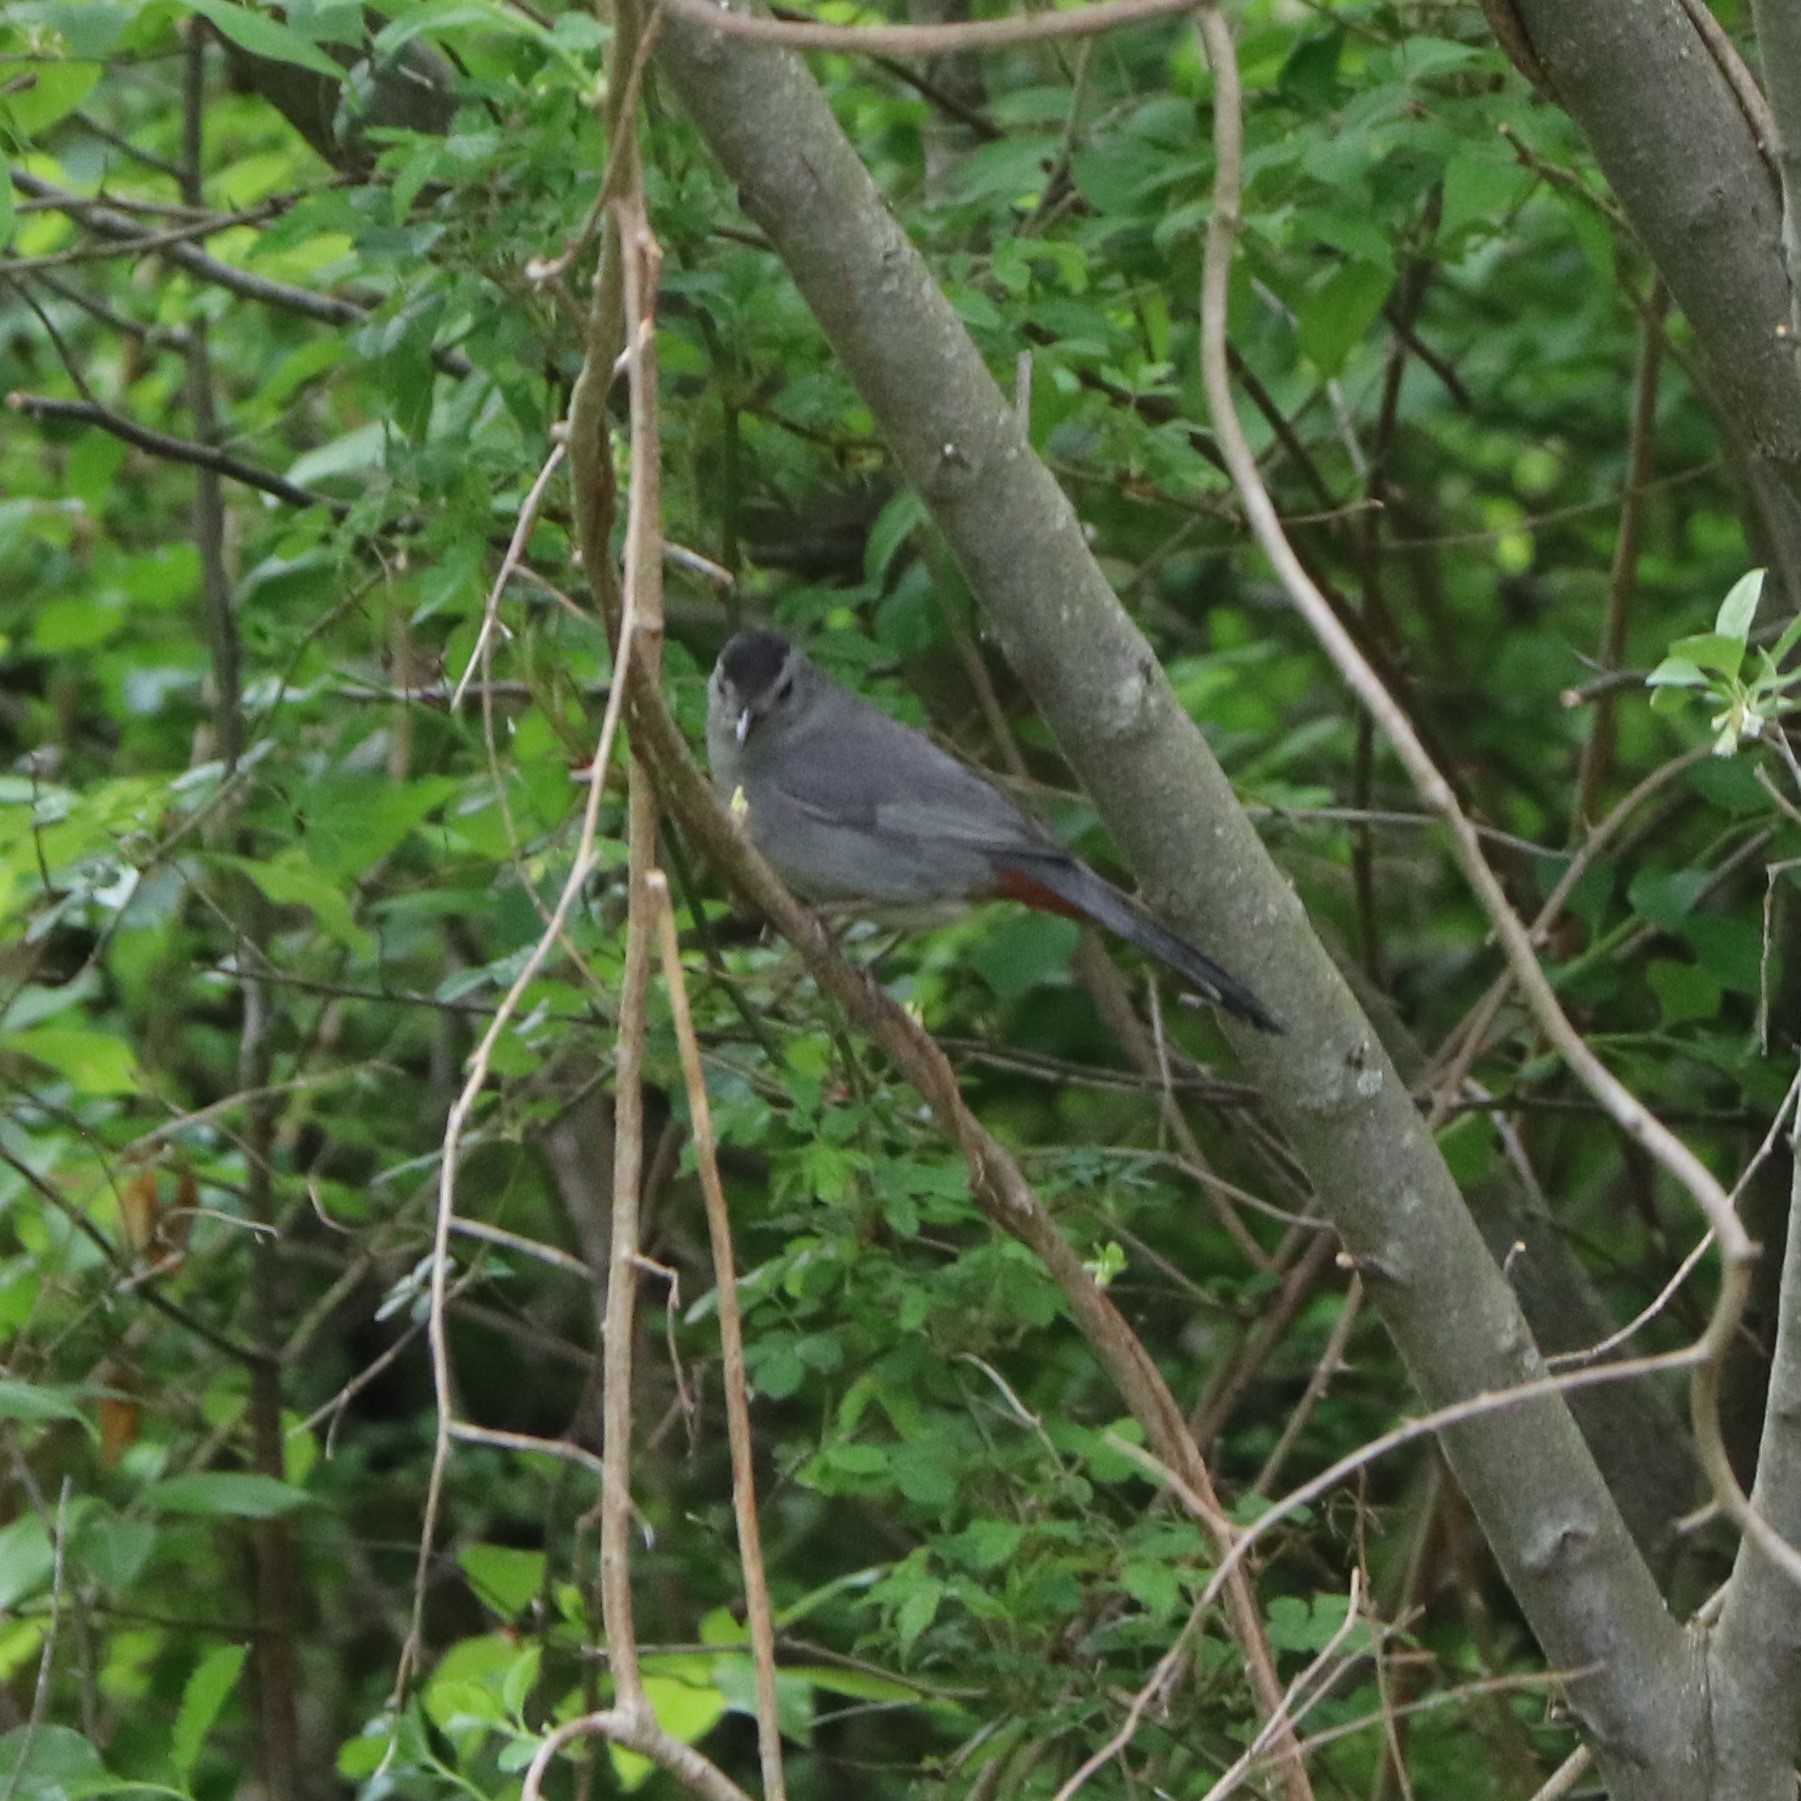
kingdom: Animalia
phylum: Chordata
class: Aves
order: Passeriformes
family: Mimidae
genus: Dumetella
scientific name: Dumetella carolinensis
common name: Gray catbird
